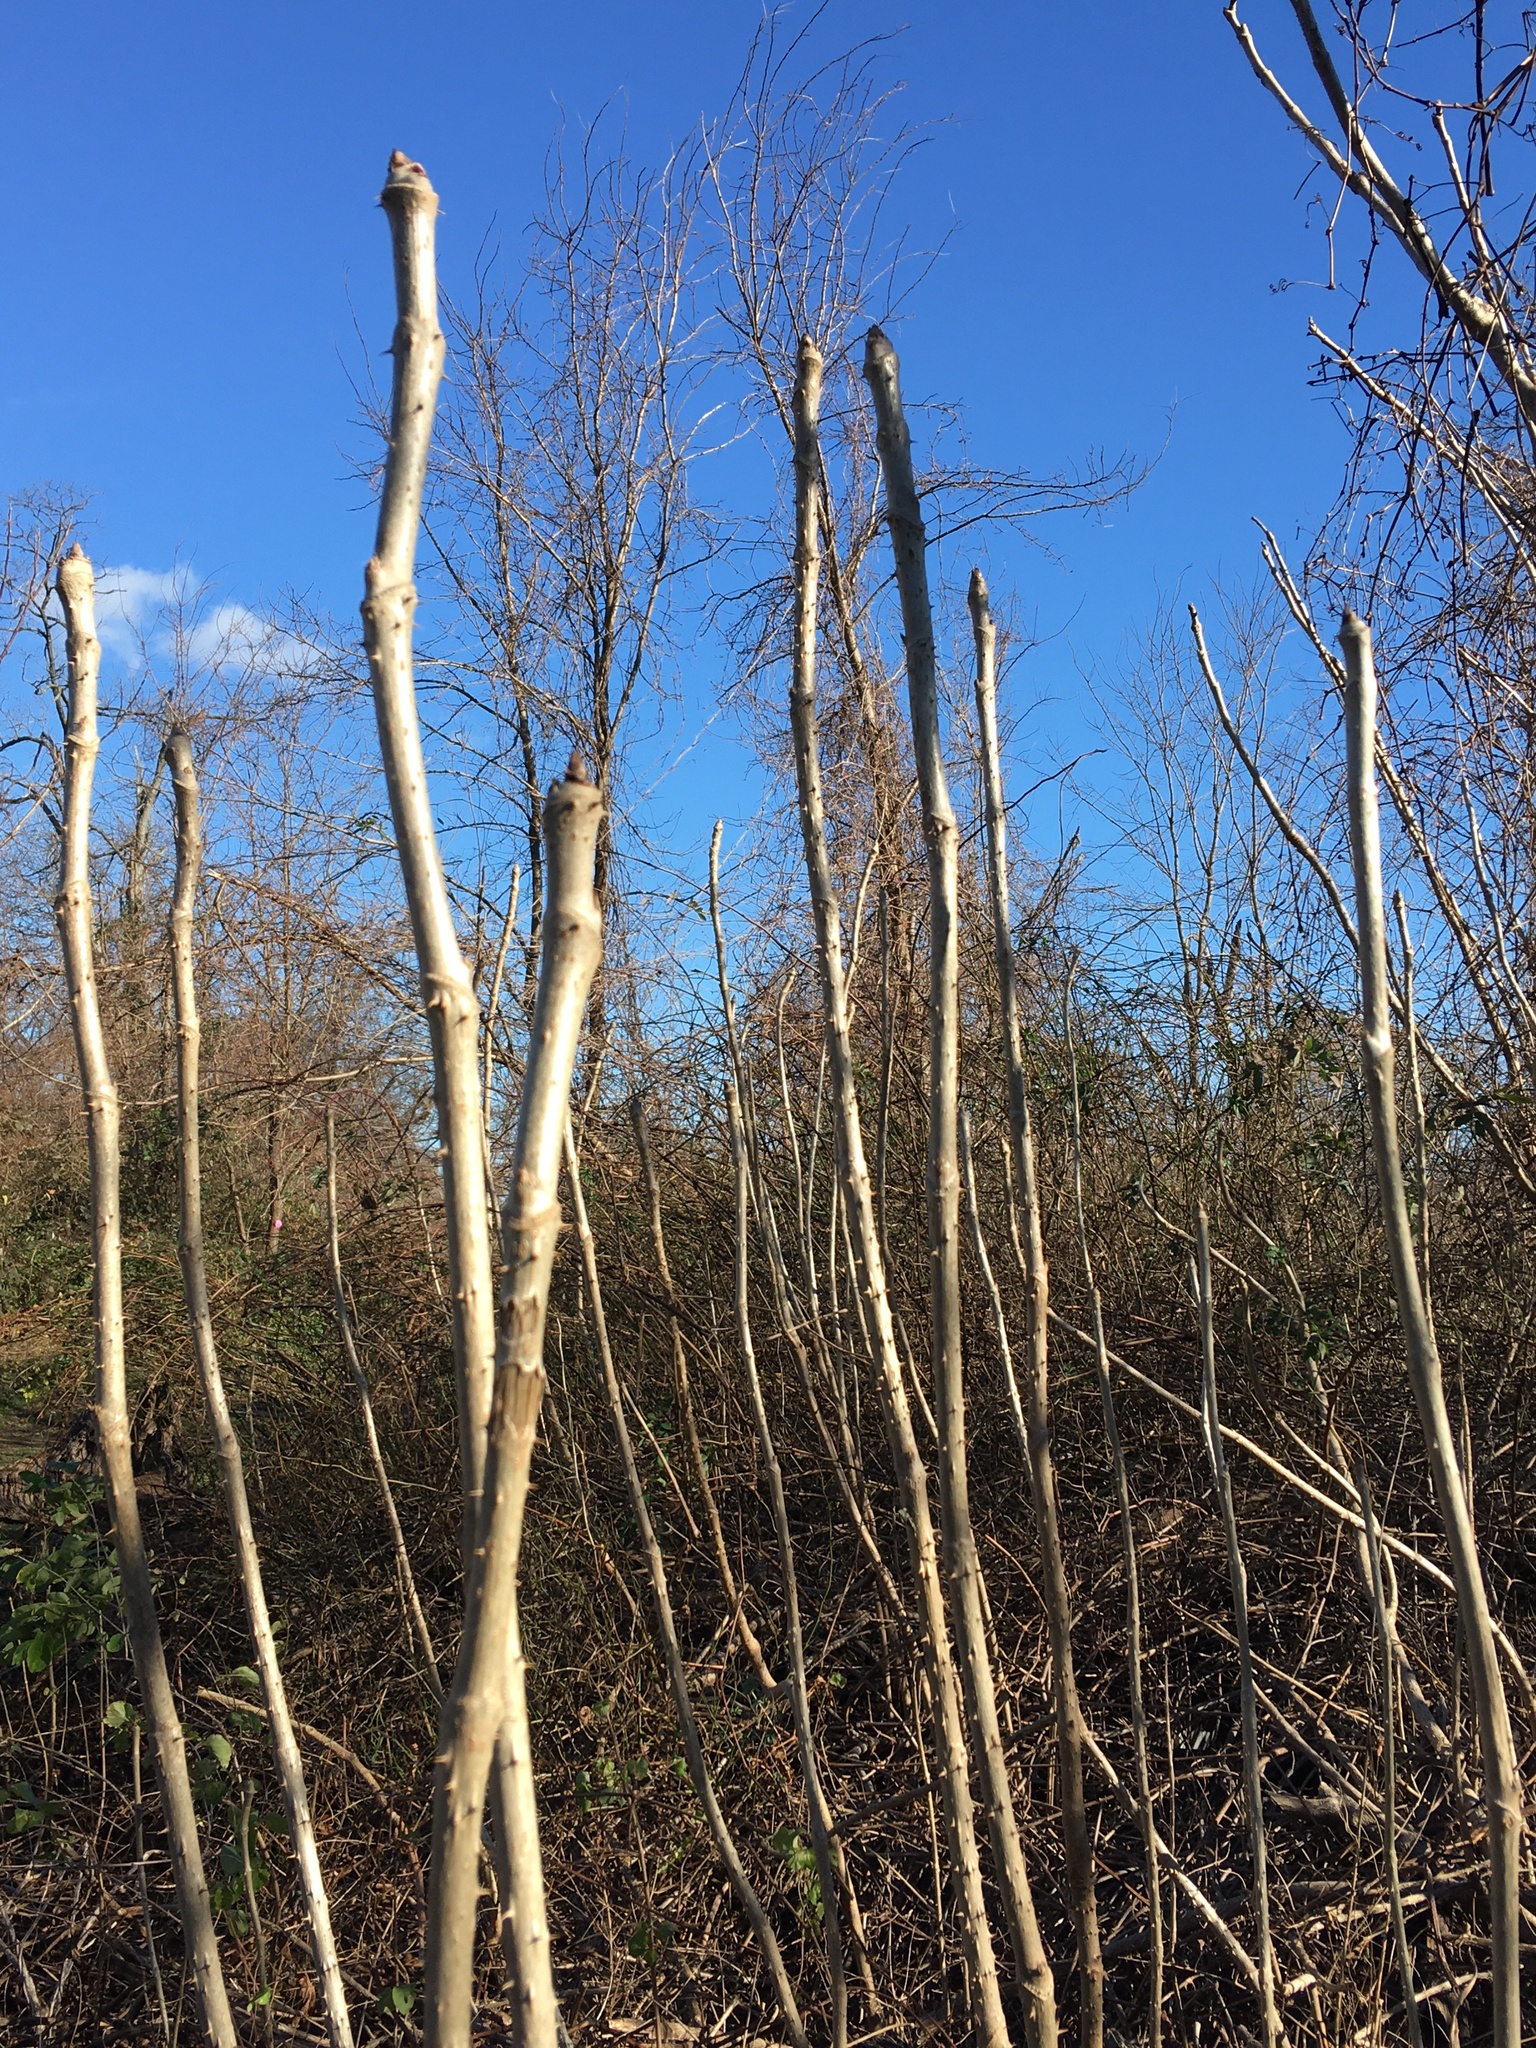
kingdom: Plantae
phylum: Tracheophyta
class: Magnoliopsida
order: Apiales
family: Araliaceae
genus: Aralia
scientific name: Aralia elata
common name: Japanese angelica-tree
